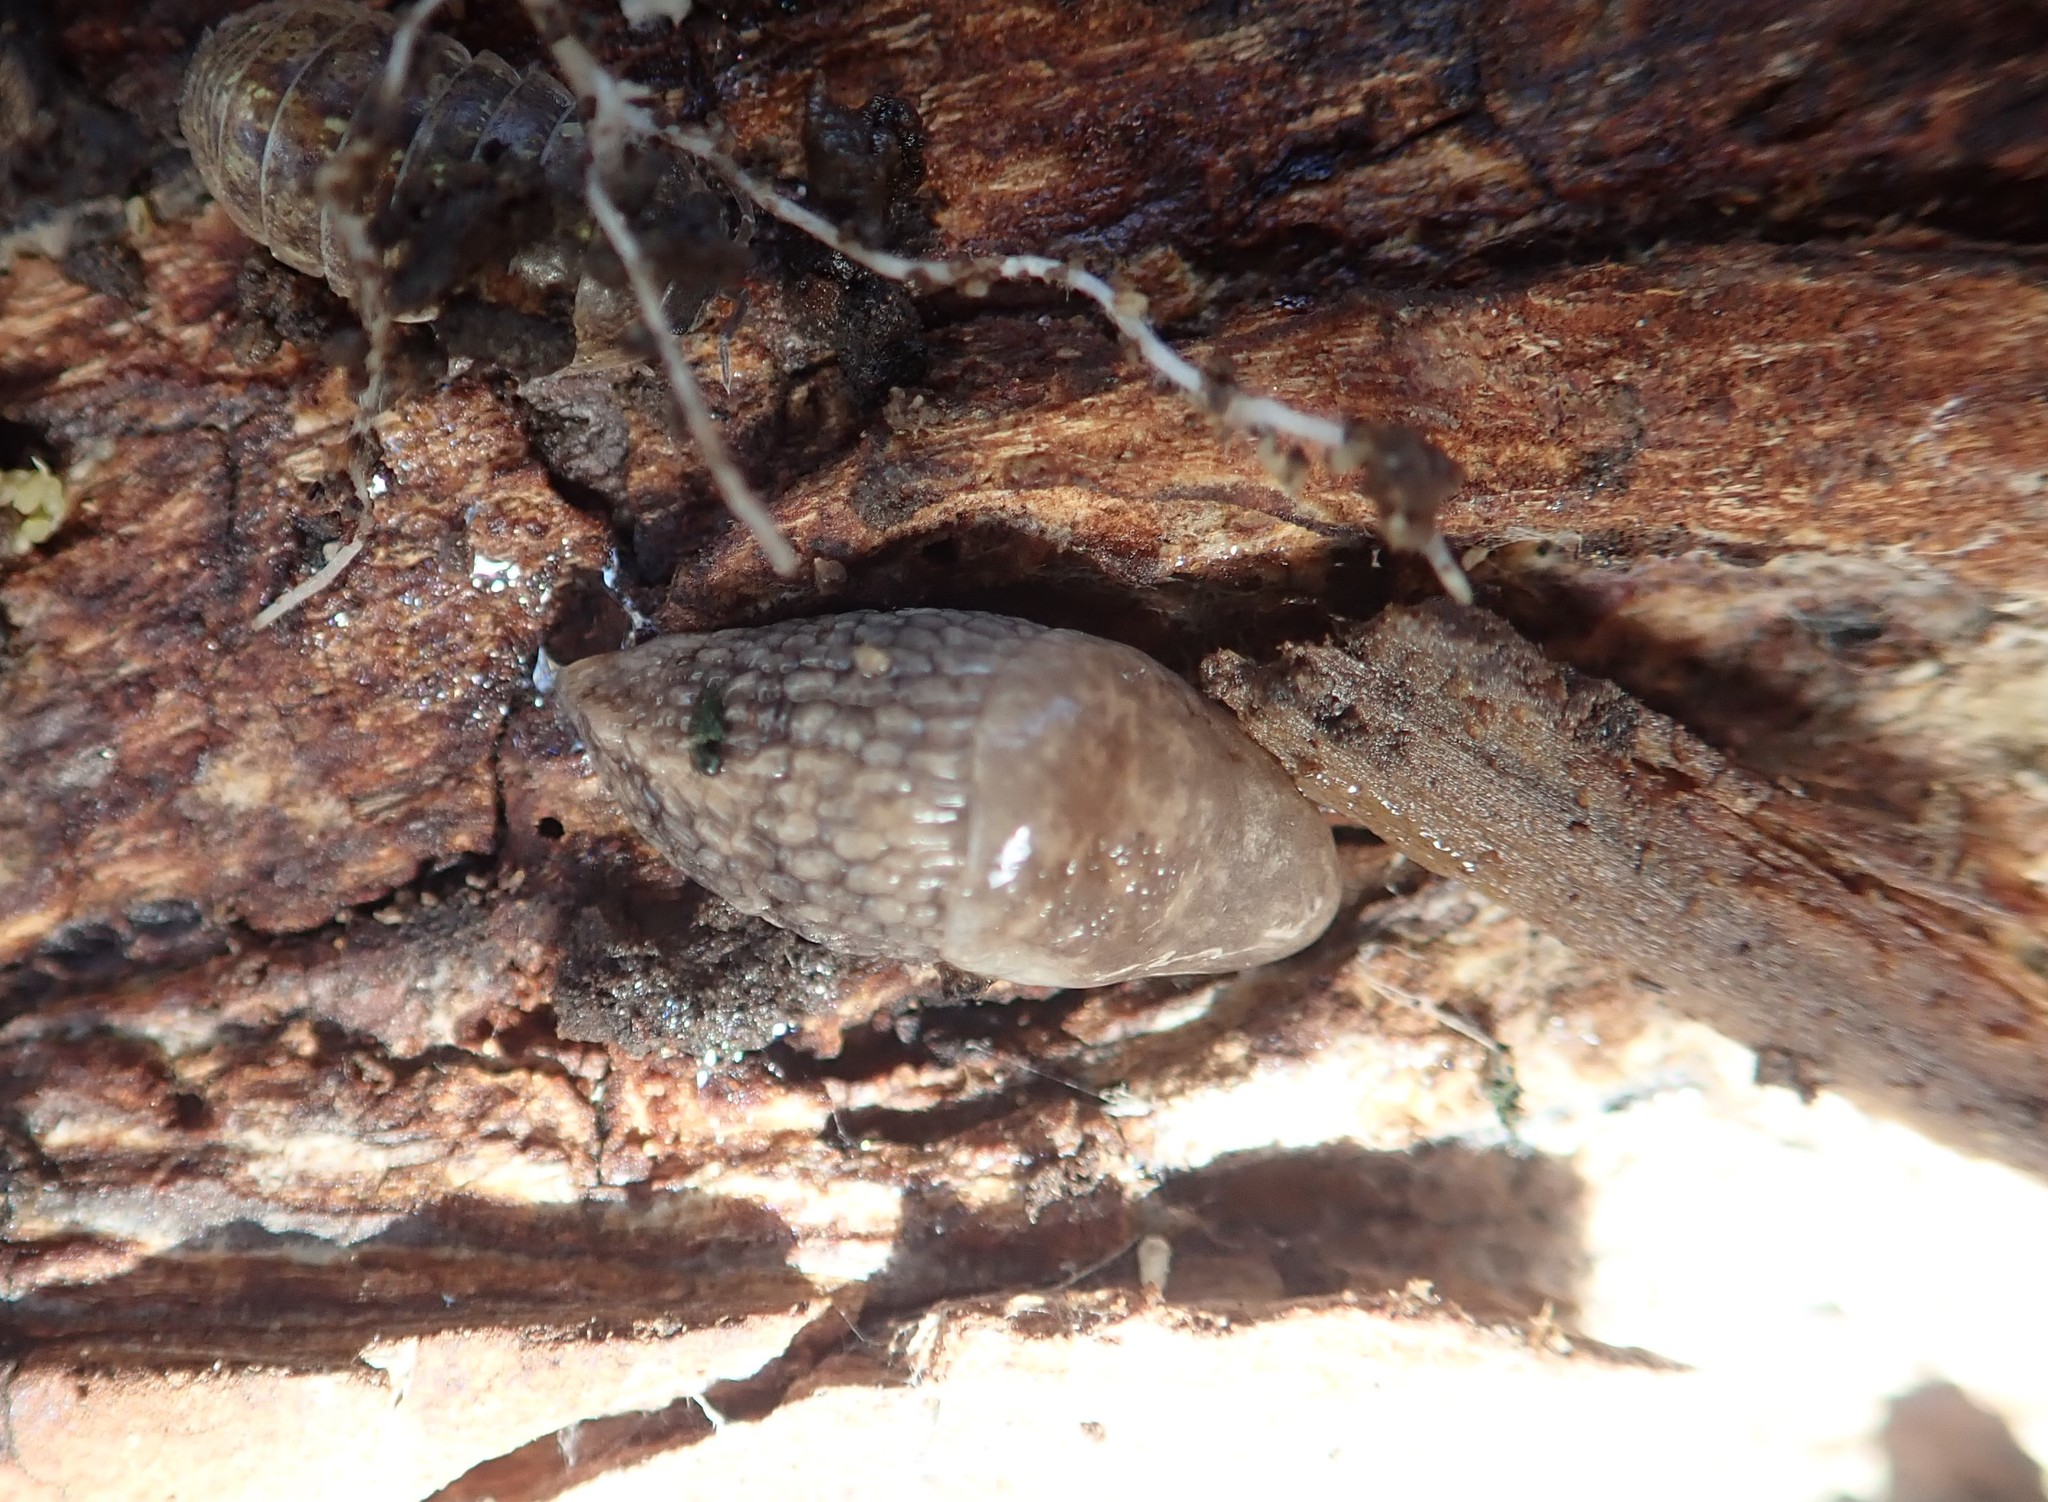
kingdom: Animalia
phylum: Mollusca
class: Gastropoda
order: Stylommatophora
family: Agriolimacidae
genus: Deroceras
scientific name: Deroceras reticulatum
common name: Gray field slug
